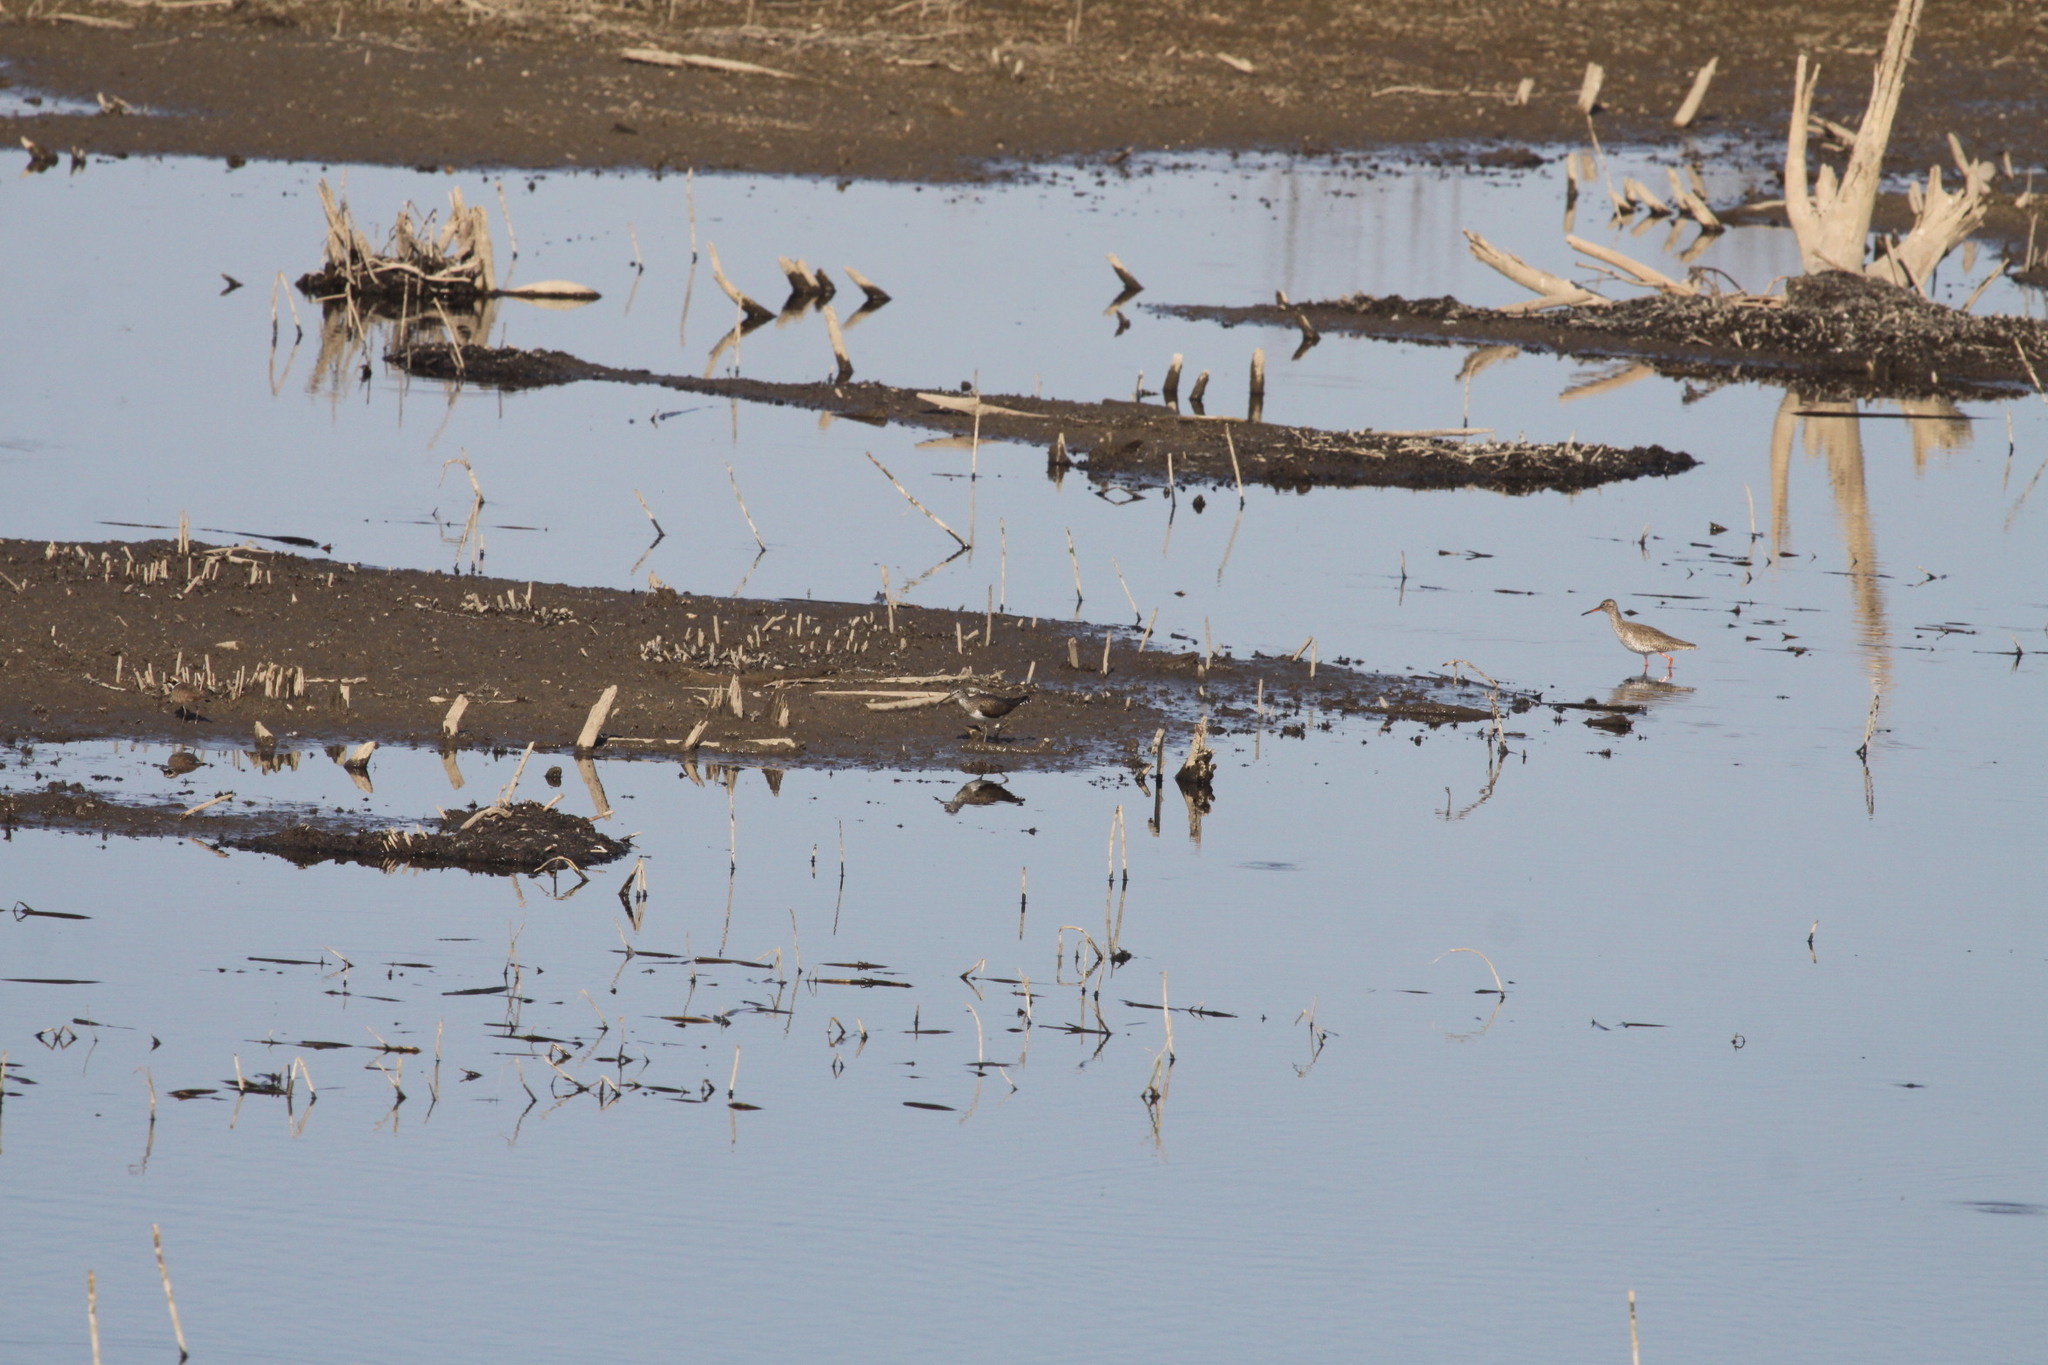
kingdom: Animalia
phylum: Chordata
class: Aves
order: Charadriiformes
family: Scolopacidae
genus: Tringa
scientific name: Tringa ochropus
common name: Green sandpiper
